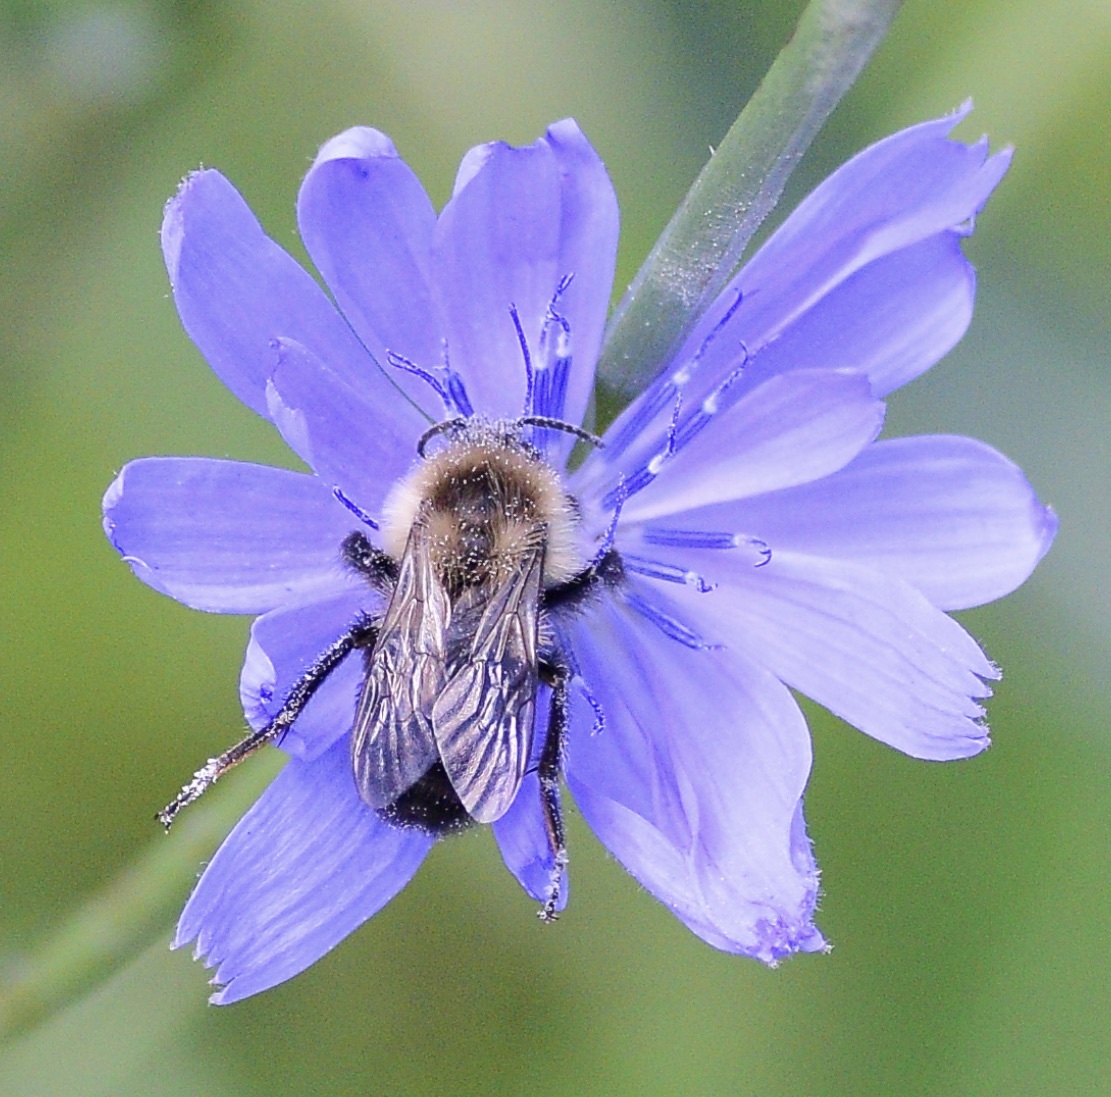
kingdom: Animalia
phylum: Arthropoda
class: Insecta
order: Hymenoptera
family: Apidae
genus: Bombus
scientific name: Bombus impatiens
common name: Common eastern bumble bee
